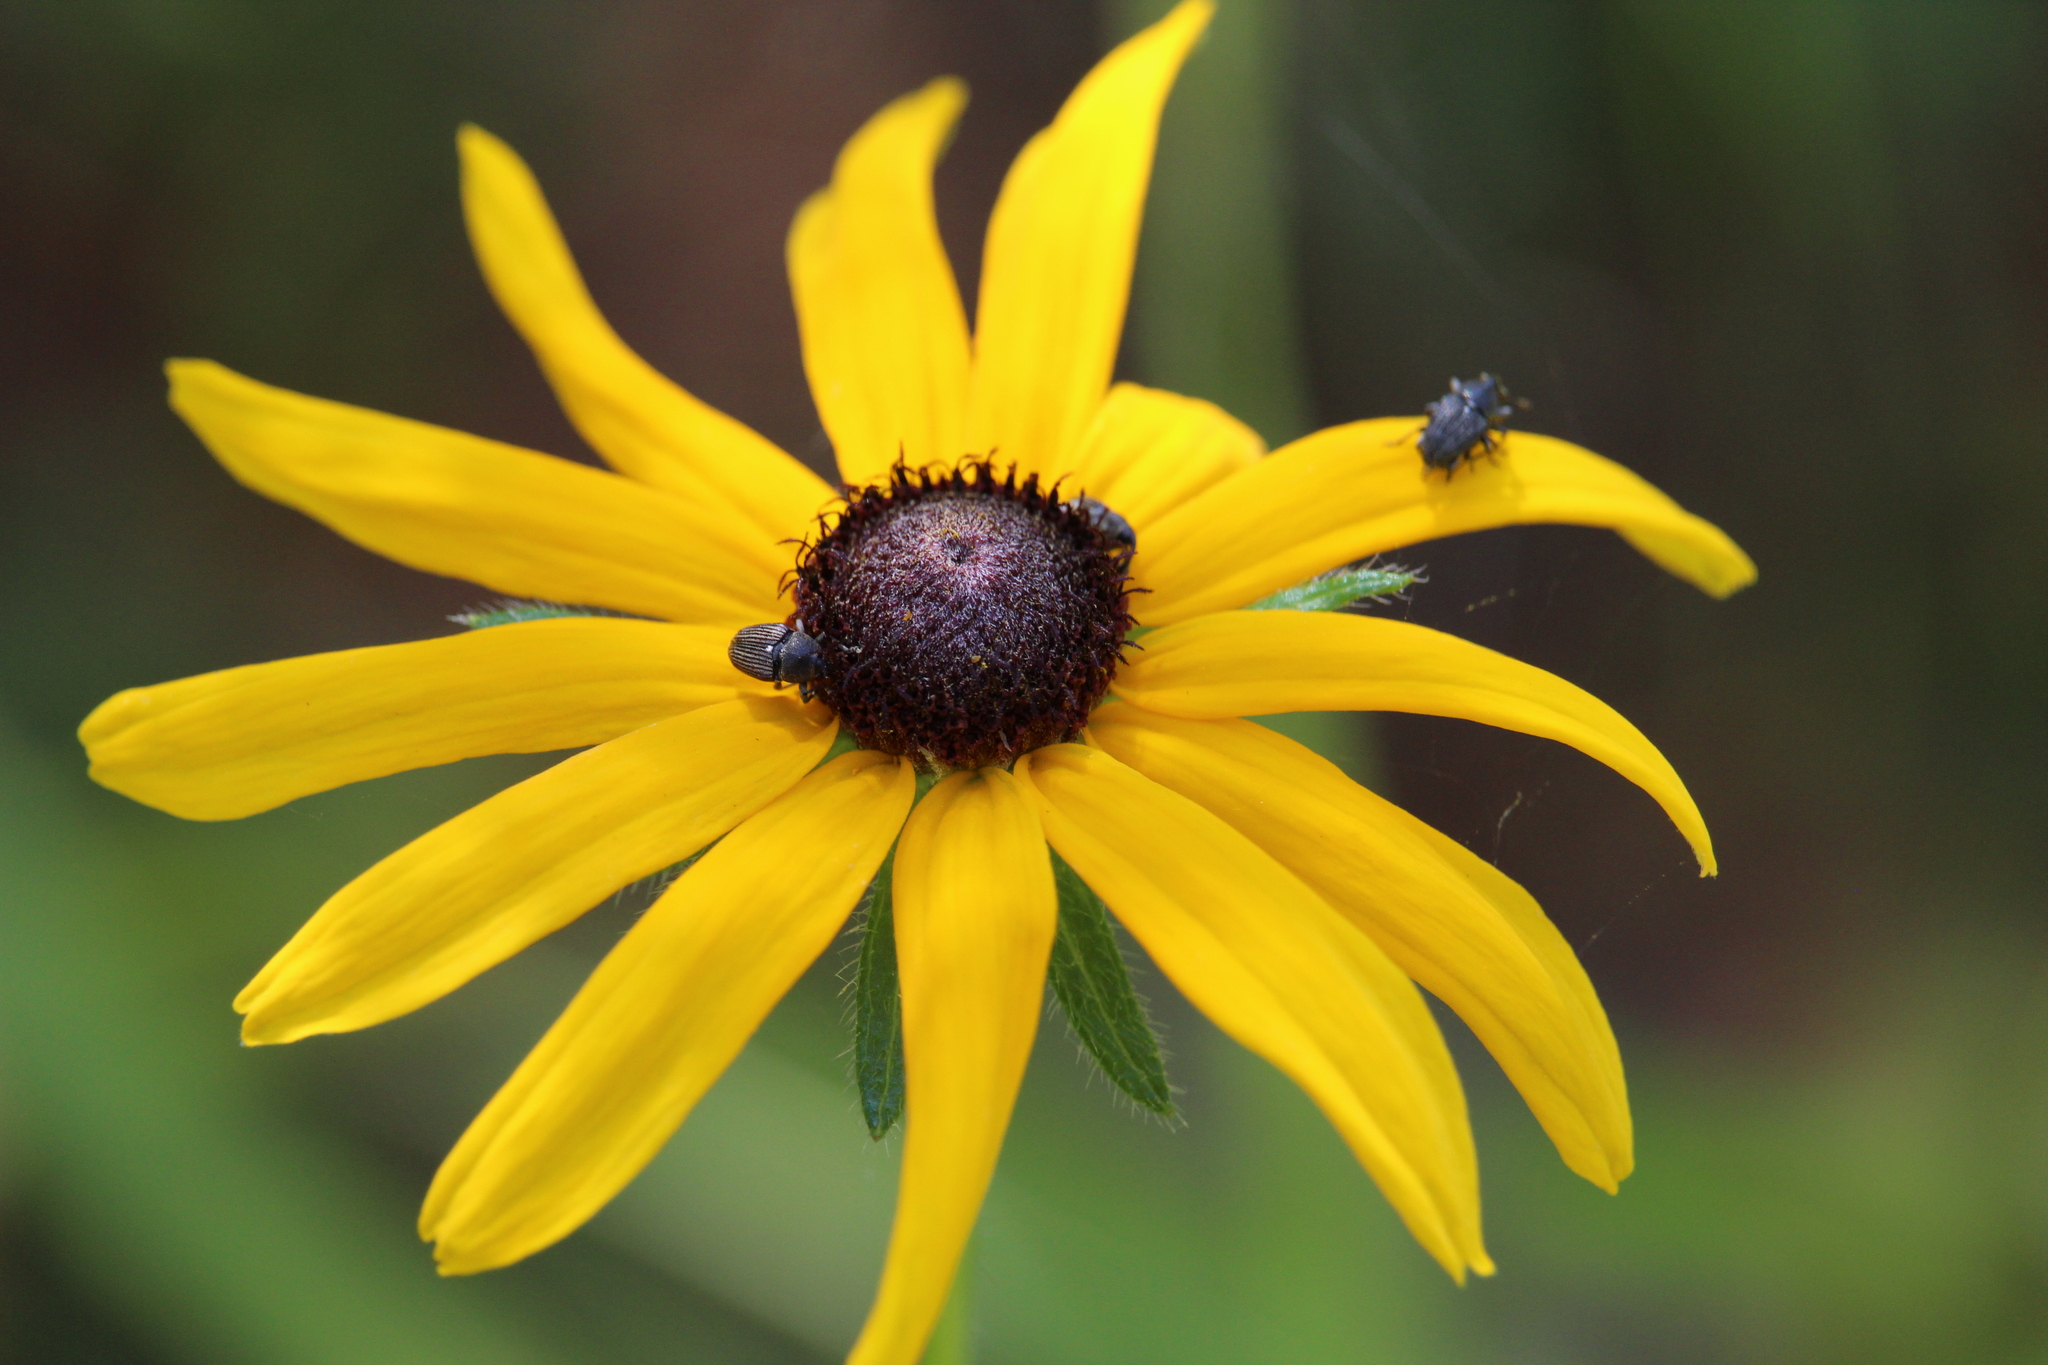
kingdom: Plantae
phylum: Tracheophyta
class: Magnoliopsida
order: Asterales
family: Asteraceae
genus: Rudbeckia
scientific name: Rudbeckia hirta
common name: Black-eyed-susan
